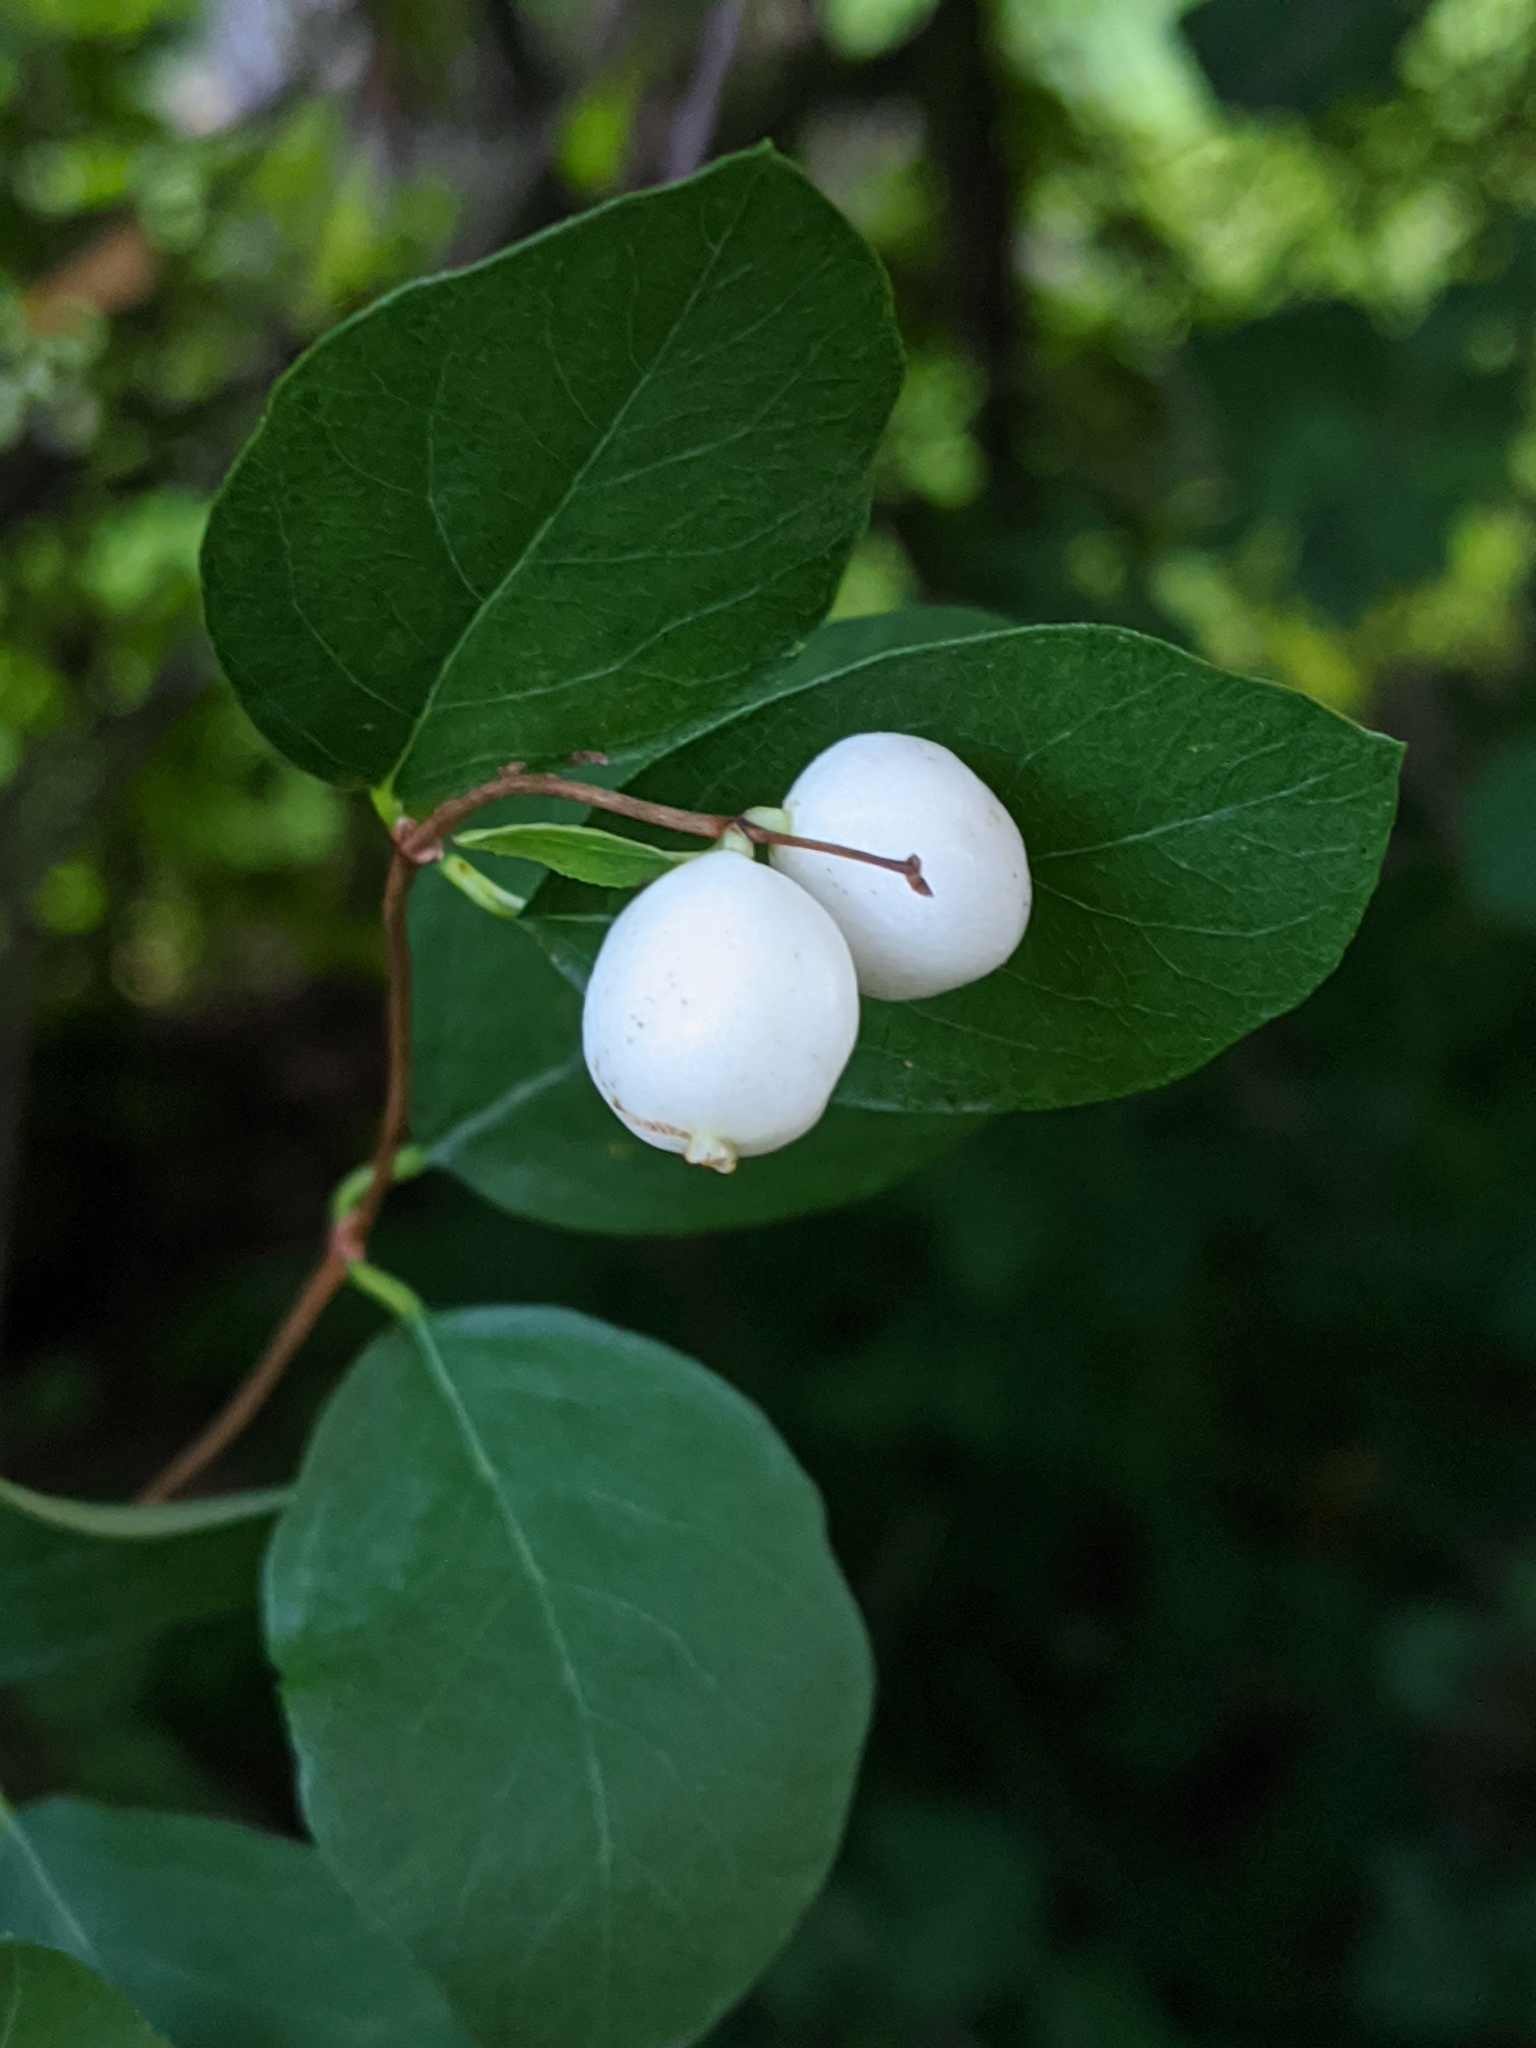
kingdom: Plantae
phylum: Tracheophyta
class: Magnoliopsida
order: Dipsacales
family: Caprifoliaceae
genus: Symphoricarpos
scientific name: Symphoricarpos albus
